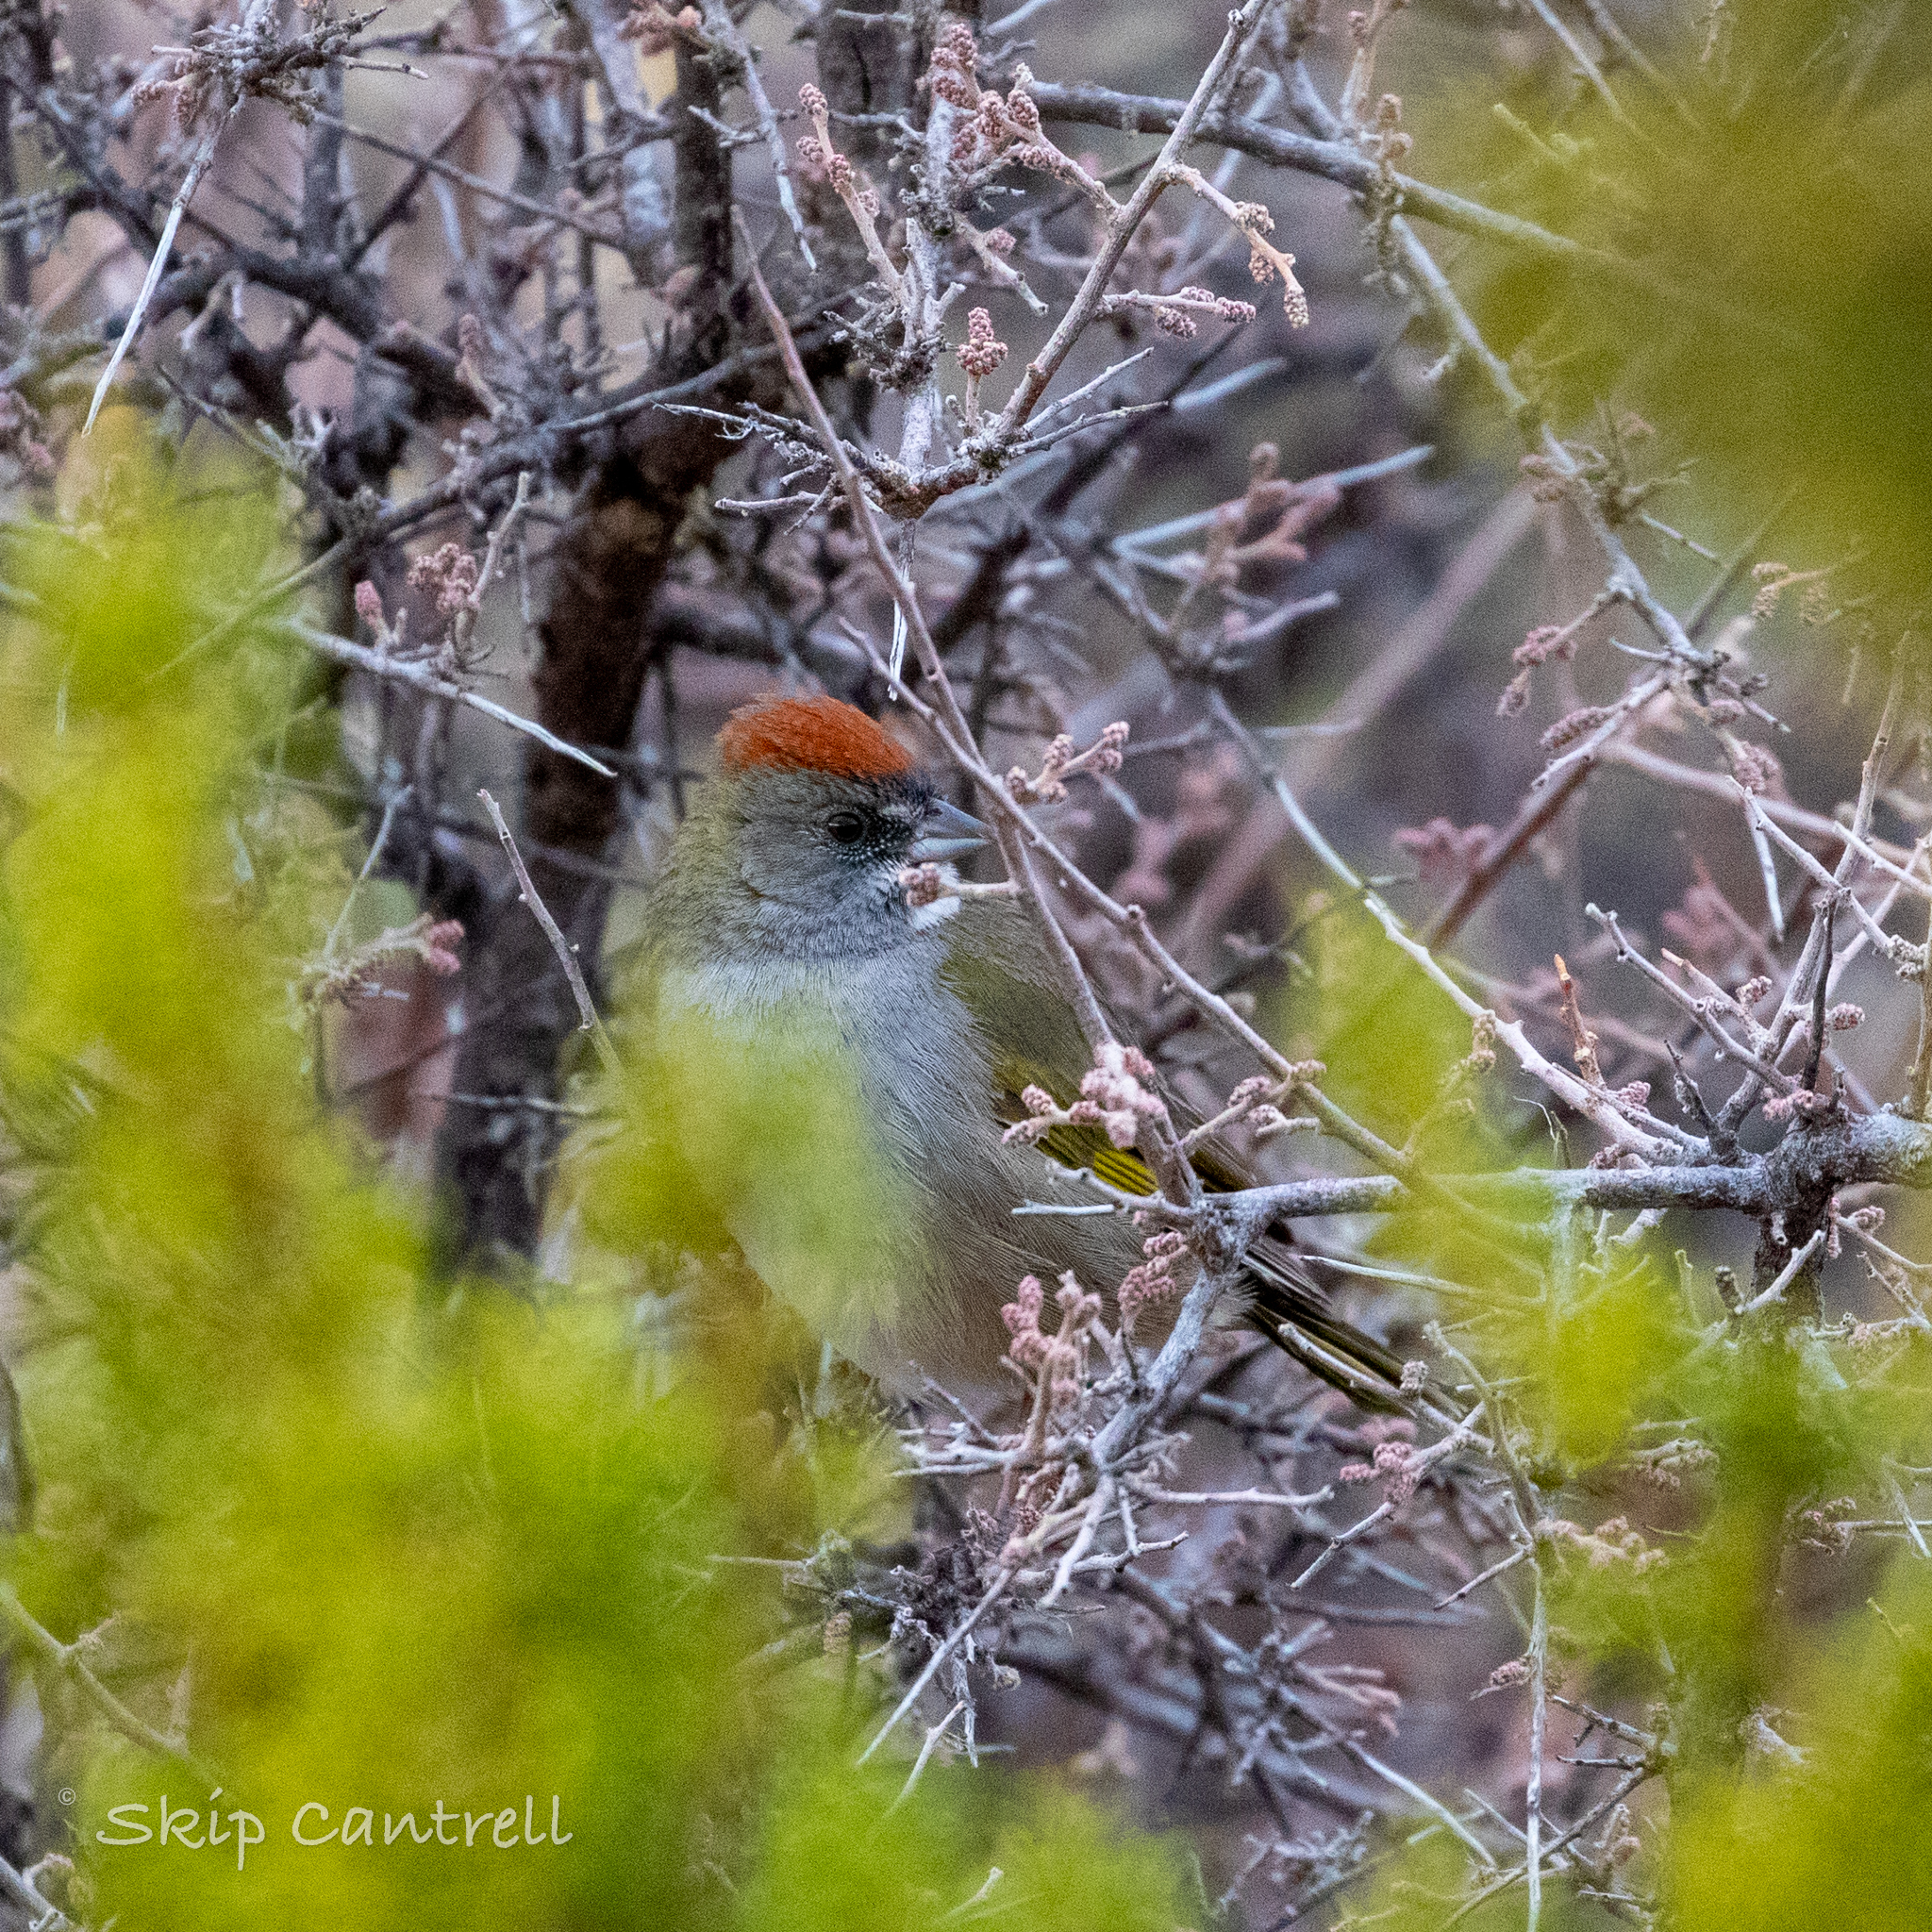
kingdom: Animalia
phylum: Chordata
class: Aves
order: Passeriformes
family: Passerellidae
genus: Pipilo
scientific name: Pipilo chlorurus
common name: Green-tailed towhee
